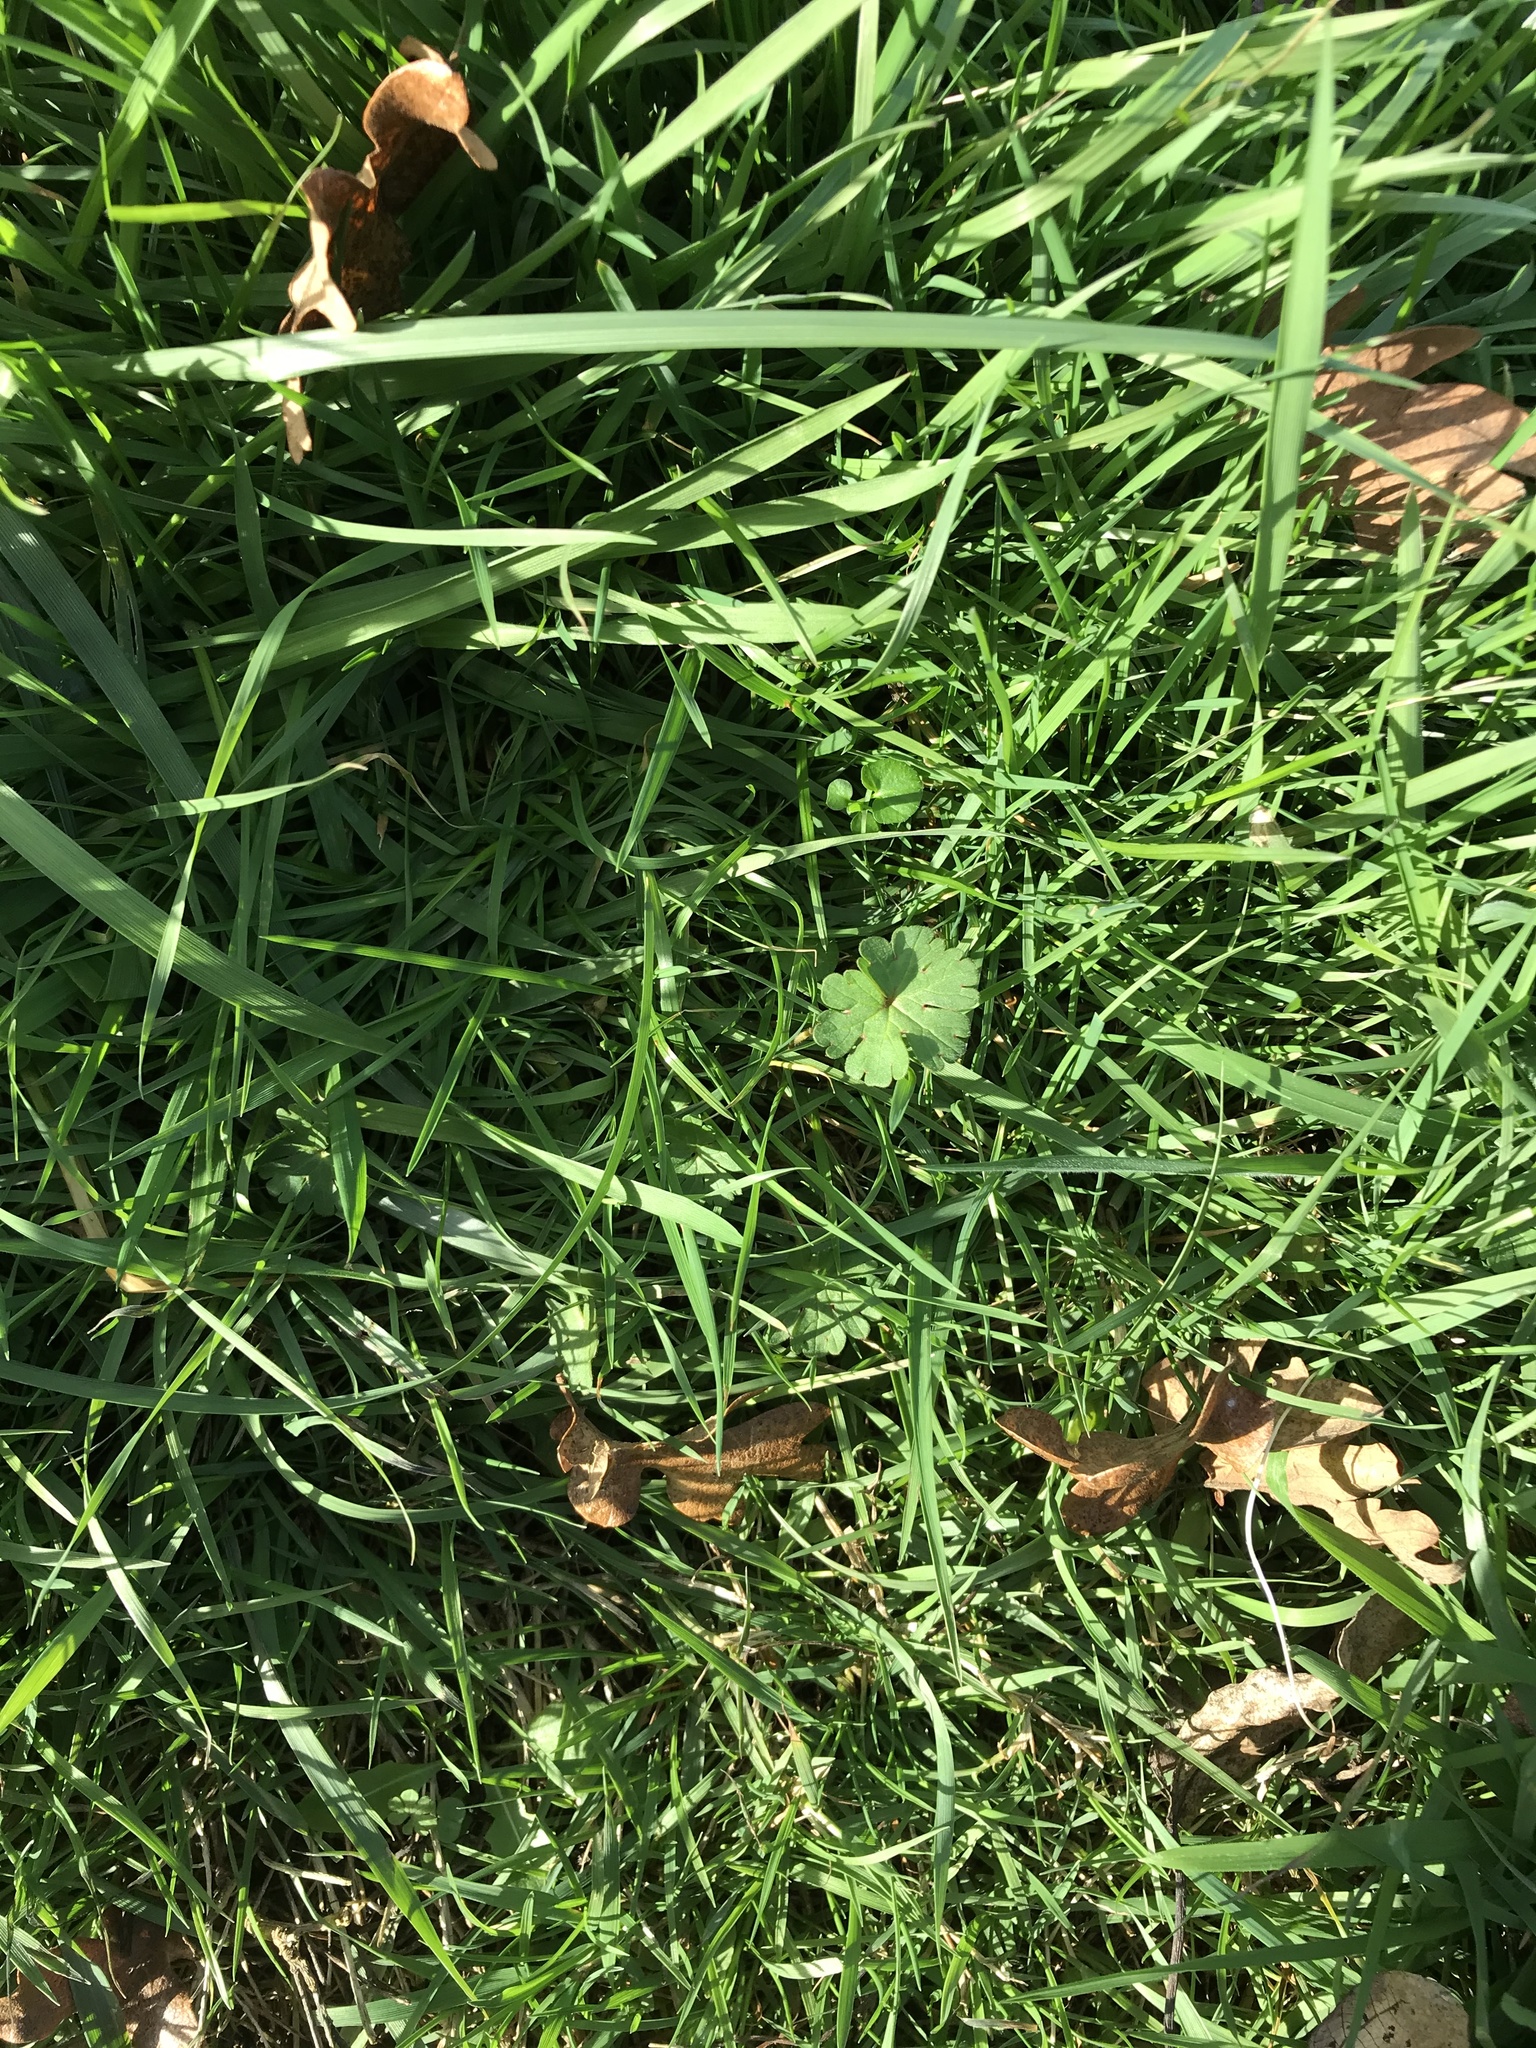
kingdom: Plantae
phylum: Tracheophyta
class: Magnoliopsida
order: Geraniales
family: Geraniaceae
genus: Geranium
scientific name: Geranium molle
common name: Dove's-foot crane's-bill
